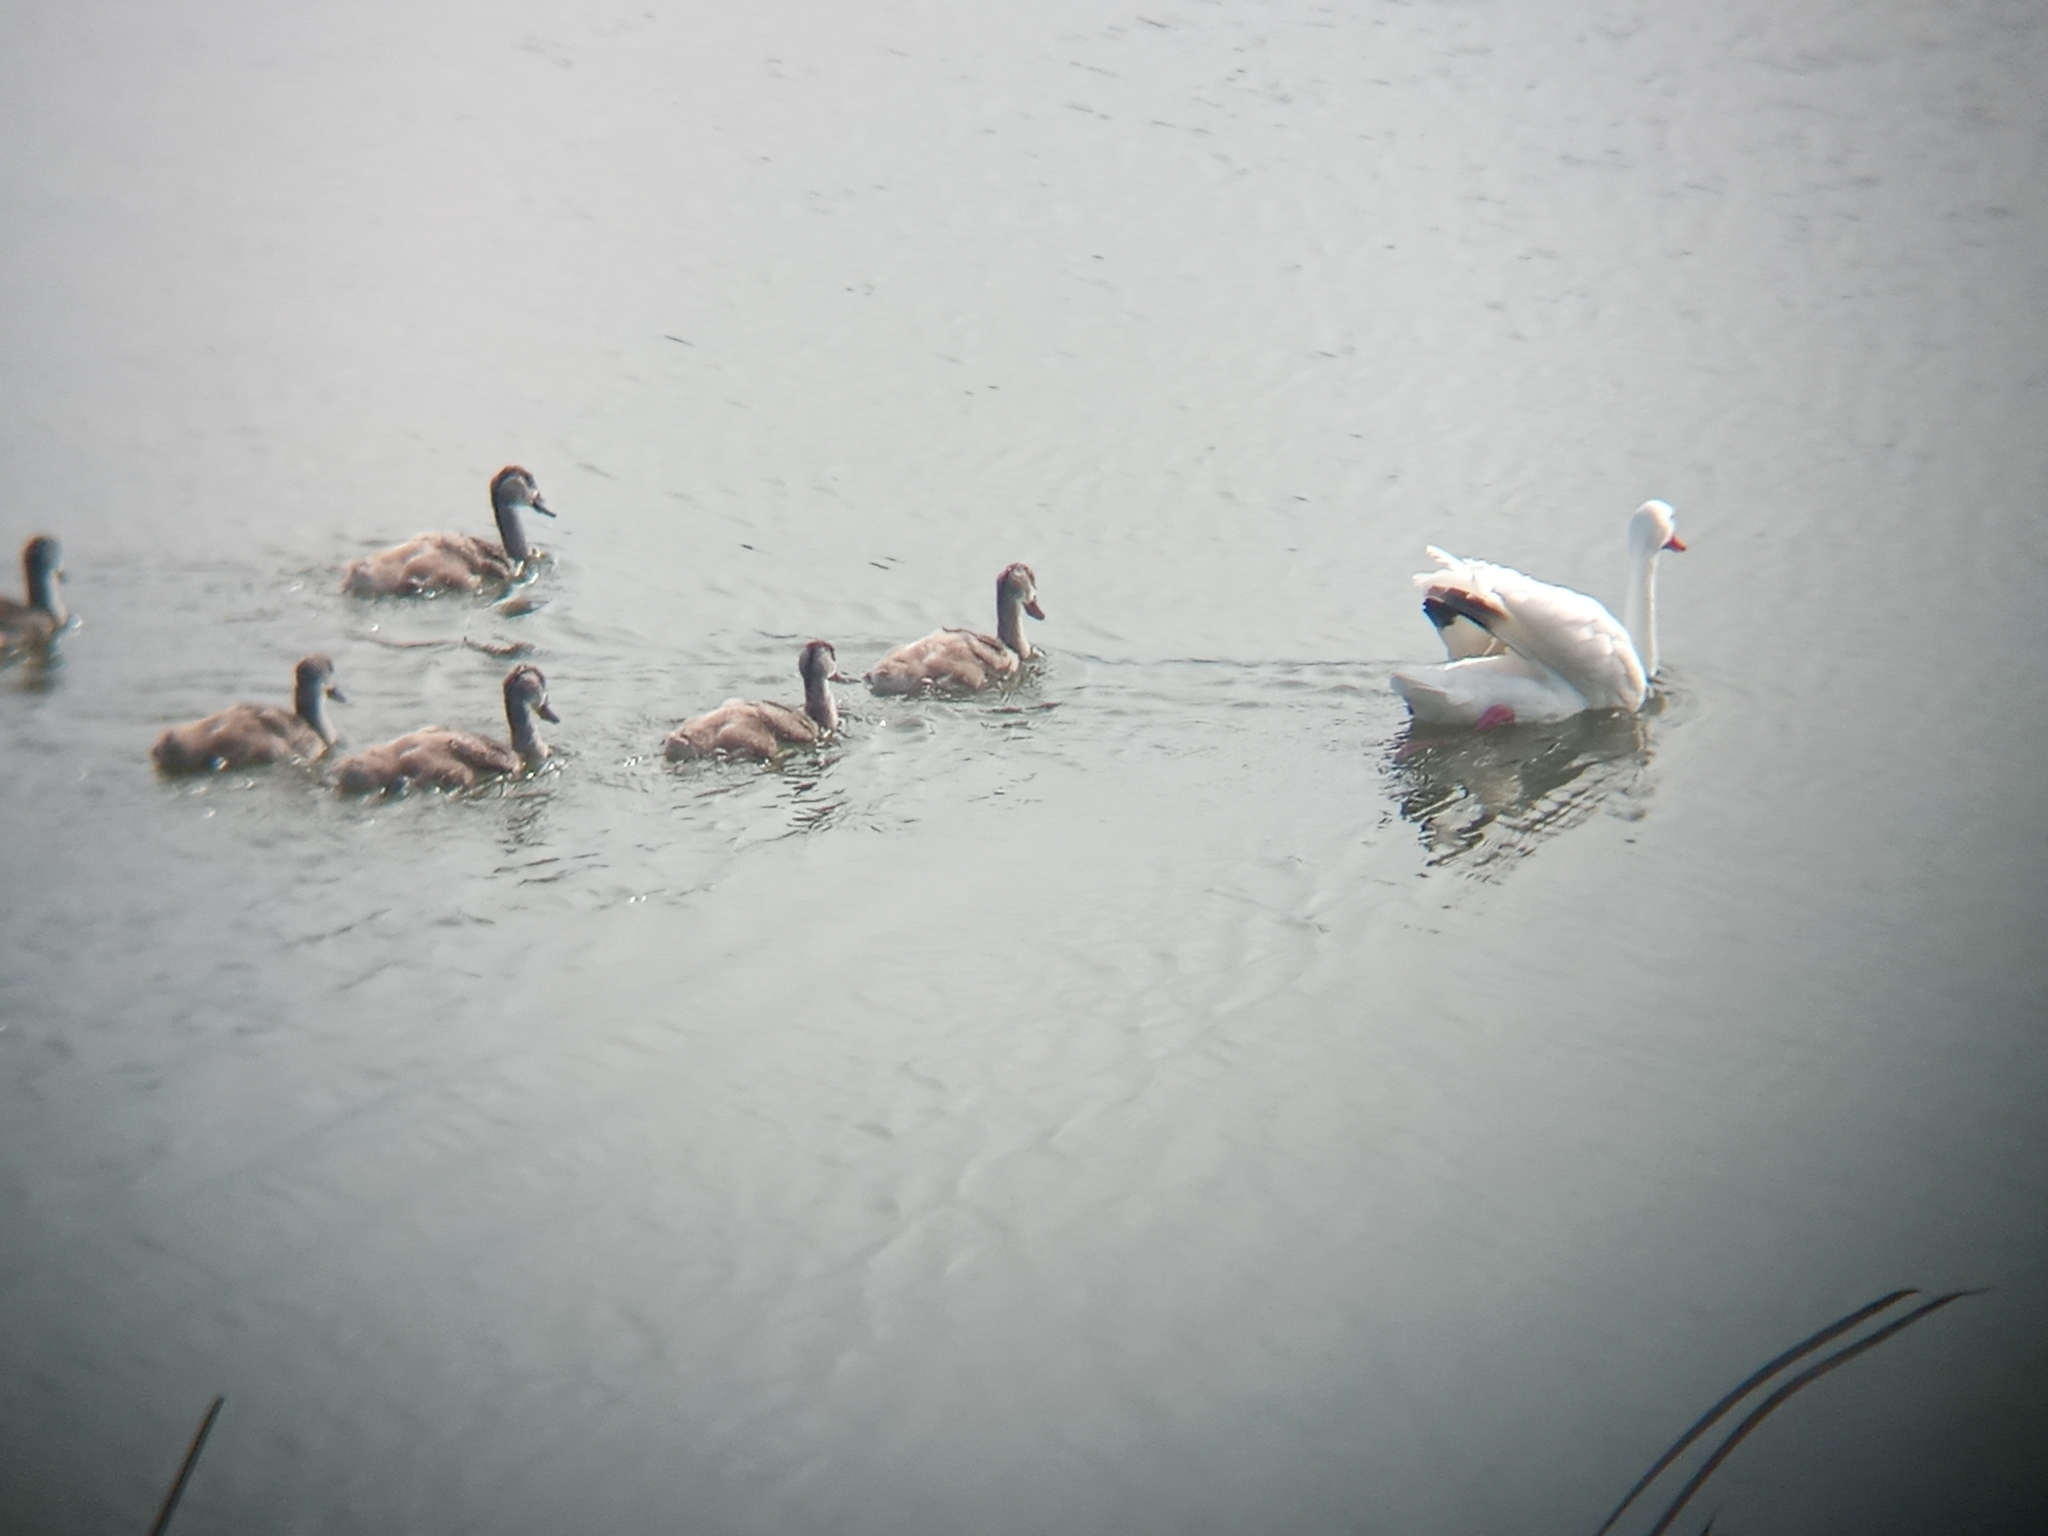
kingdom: Animalia
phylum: Chordata
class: Aves
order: Anseriformes
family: Anatidae
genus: Coscoroba
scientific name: Coscoroba coscoroba
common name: Coscoroba swan
